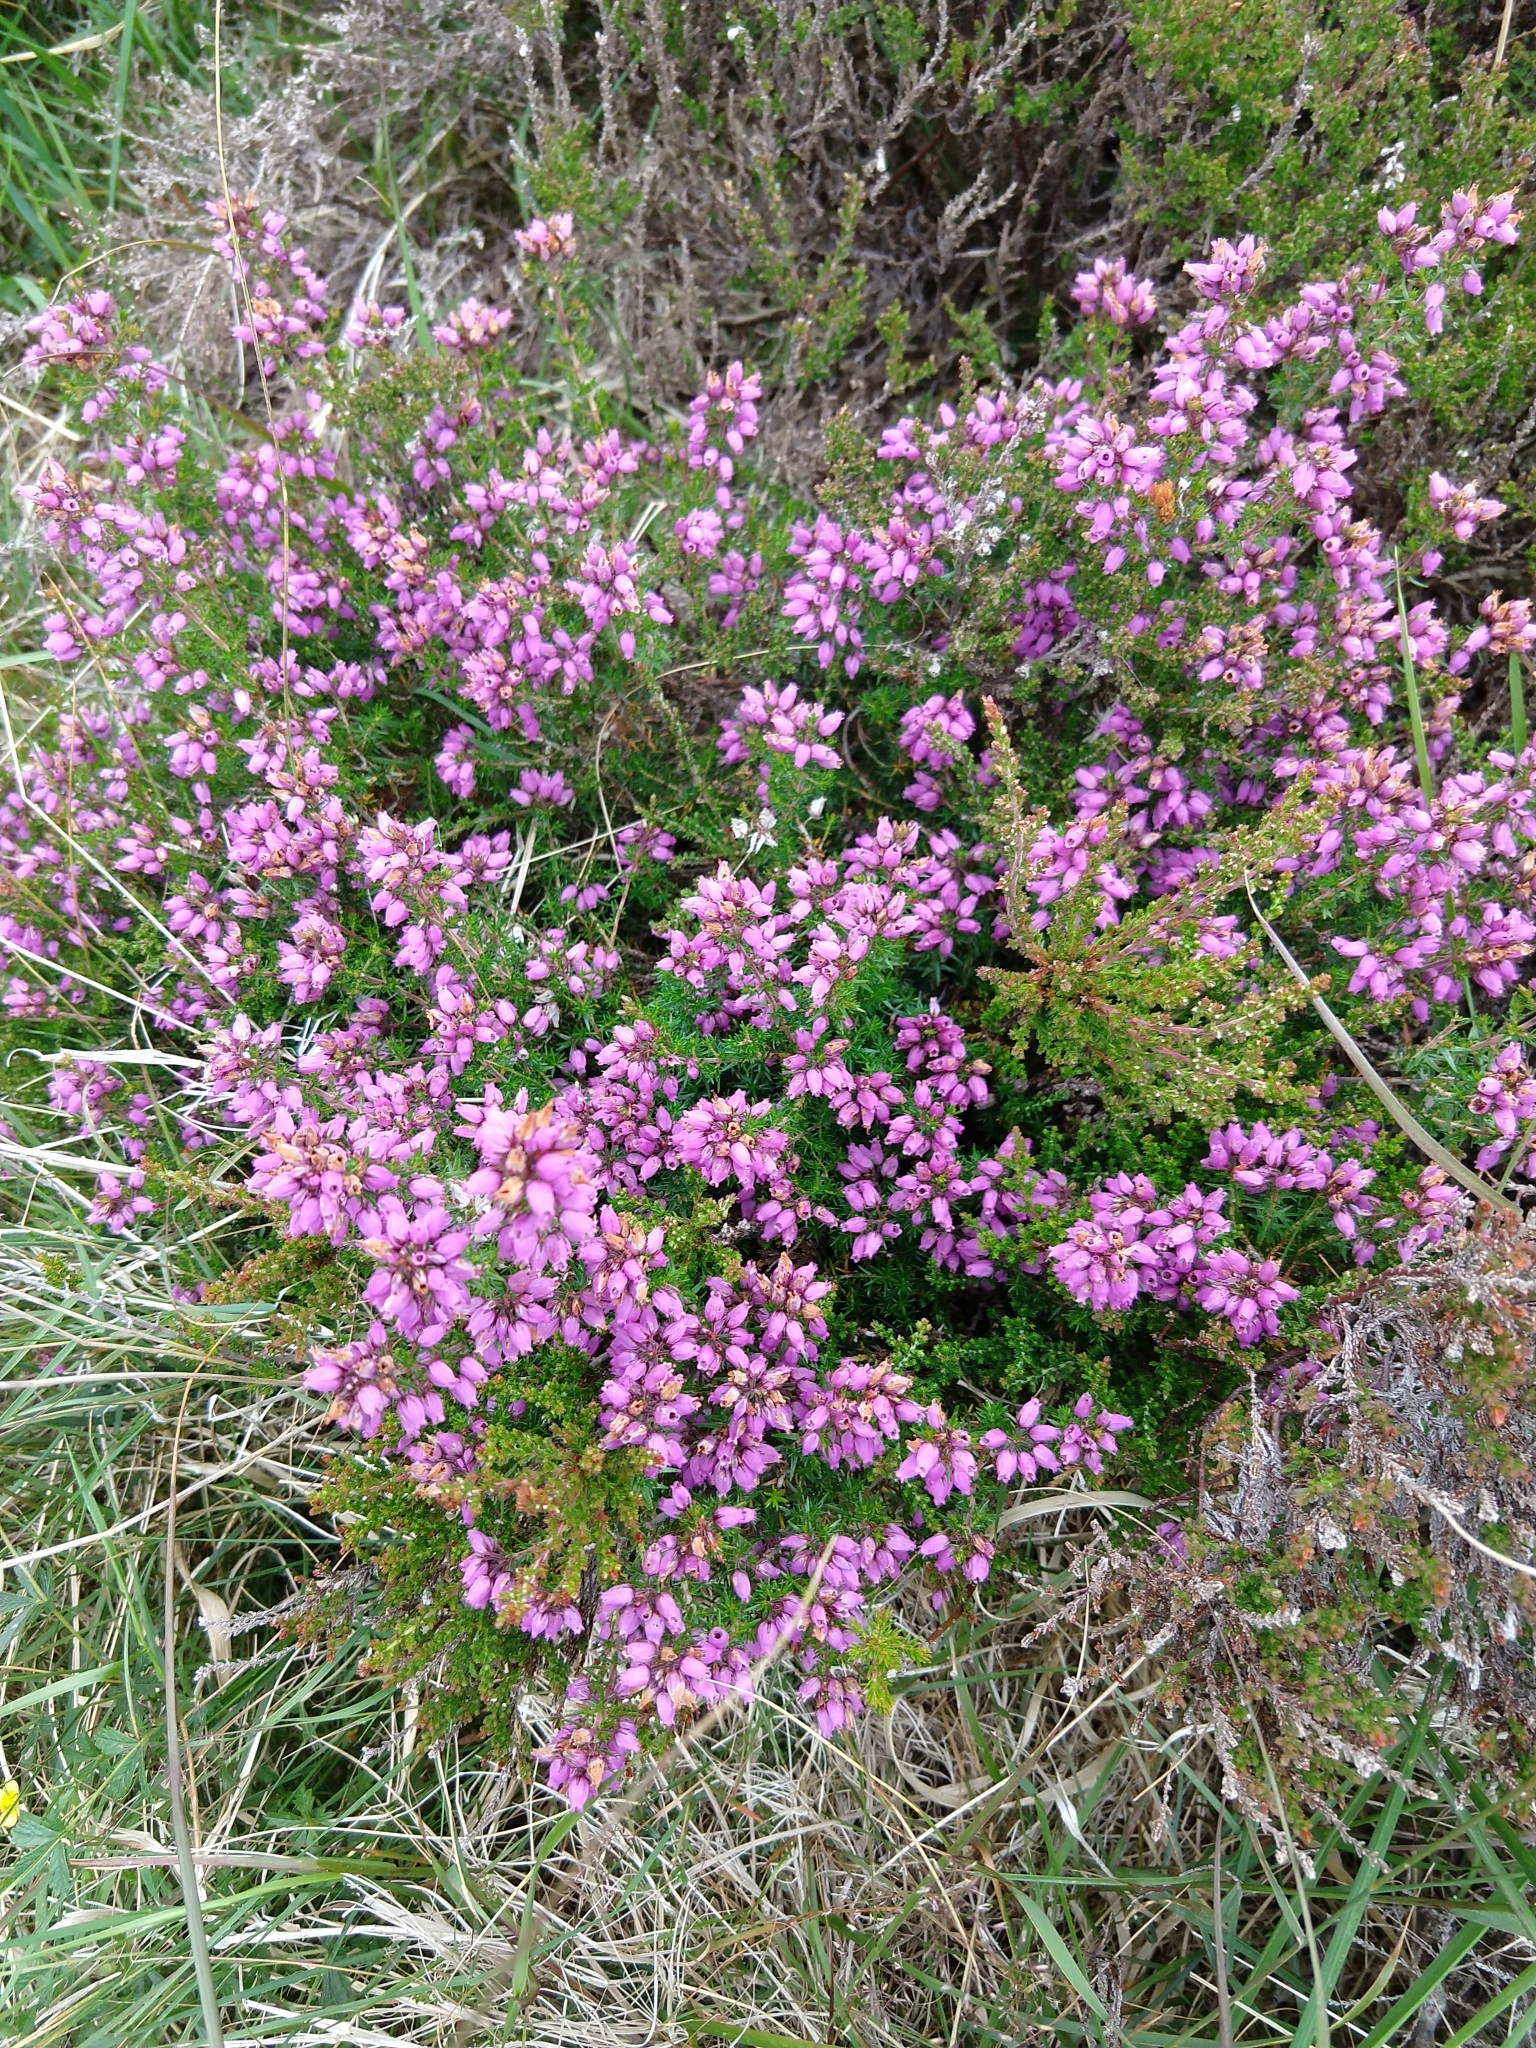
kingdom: Plantae
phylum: Tracheophyta
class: Magnoliopsida
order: Ericales
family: Ericaceae
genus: Erica
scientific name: Erica cinerea
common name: Bell heather
